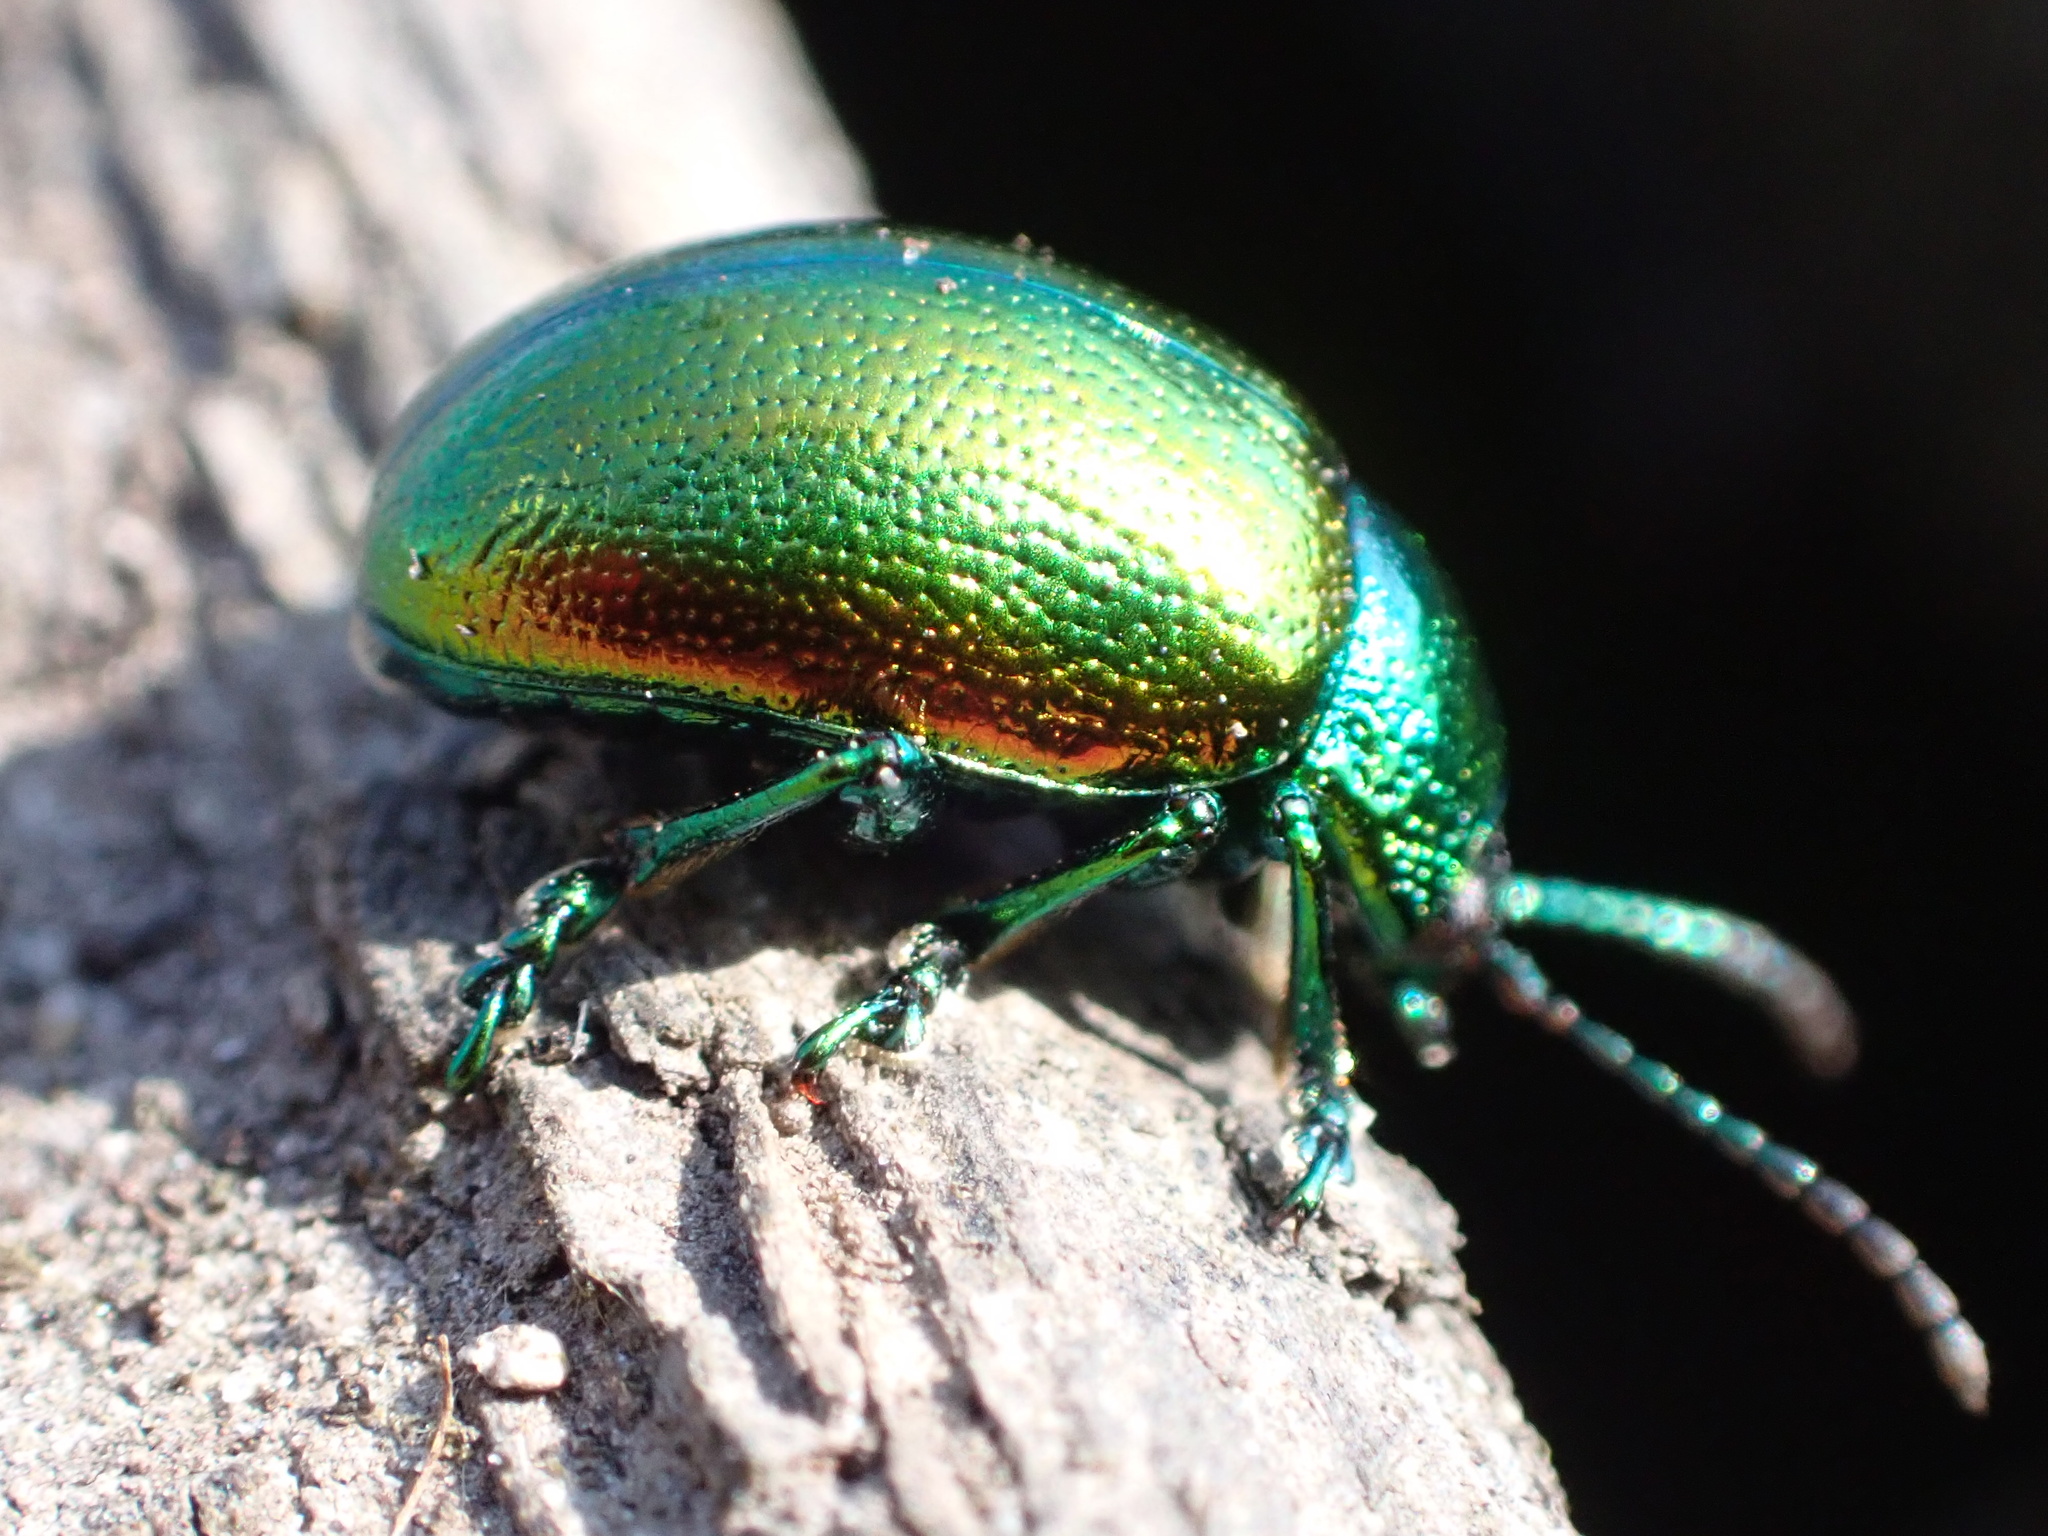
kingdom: Animalia
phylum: Arthropoda
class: Insecta
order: Coleoptera
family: Chrysomelidae
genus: Chrysolina
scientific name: Chrysolina graminis
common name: Tansey beetle
